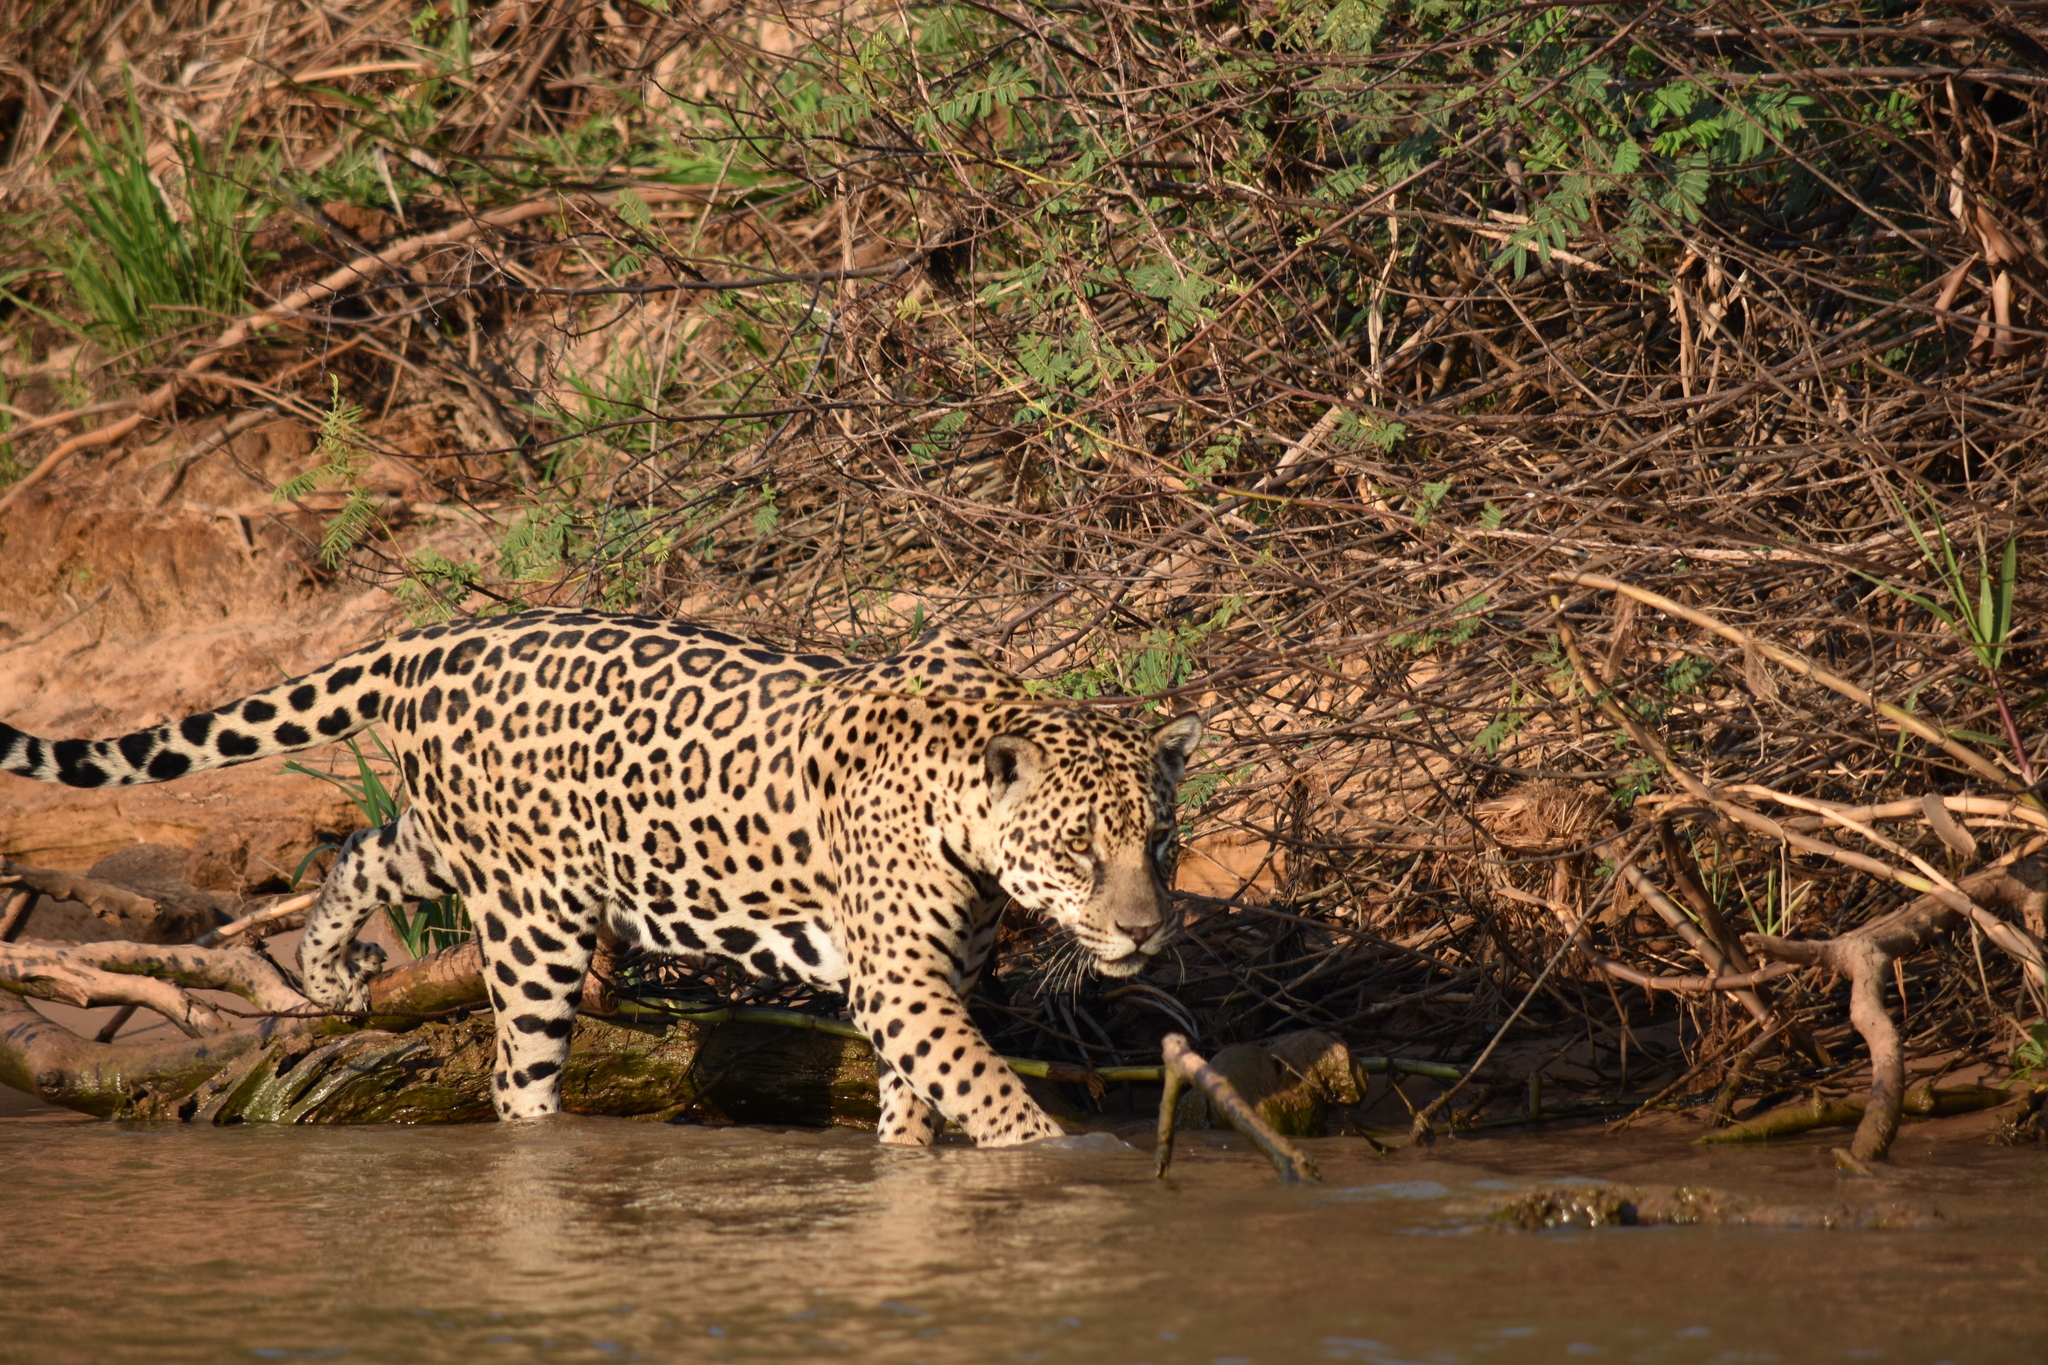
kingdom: Animalia
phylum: Chordata
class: Mammalia
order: Carnivora
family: Felidae
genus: Panthera
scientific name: Panthera onca
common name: Jaguar
